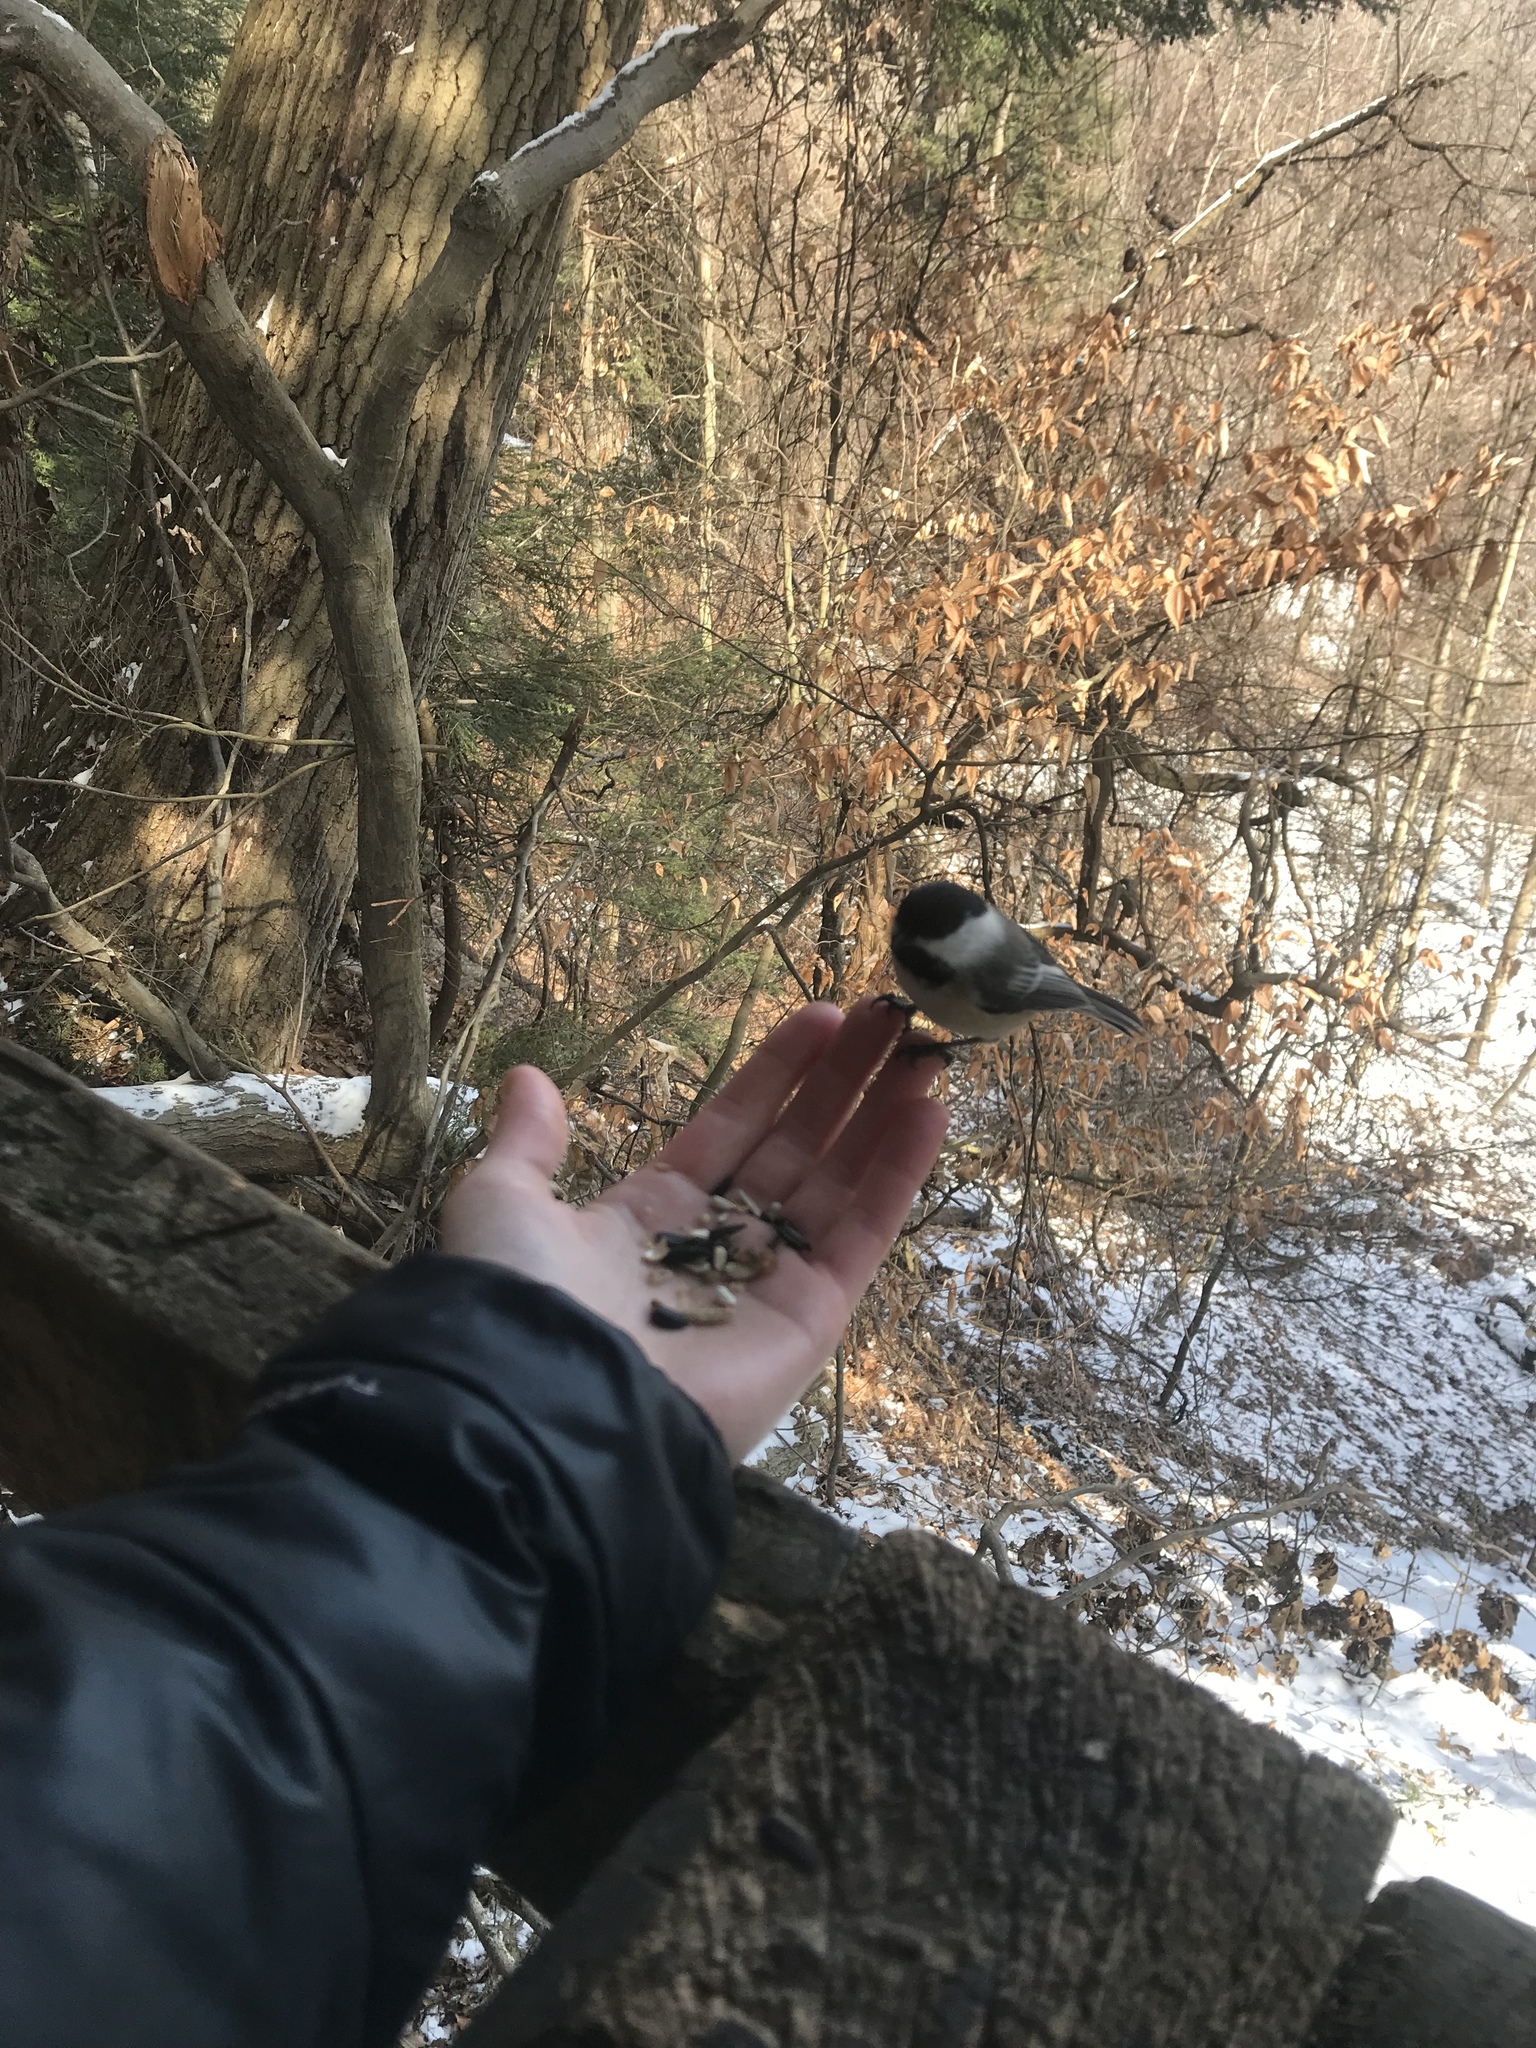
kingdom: Animalia
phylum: Chordata
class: Aves
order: Passeriformes
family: Paridae
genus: Poecile
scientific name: Poecile atricapillus
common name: Black-capped chickadee
